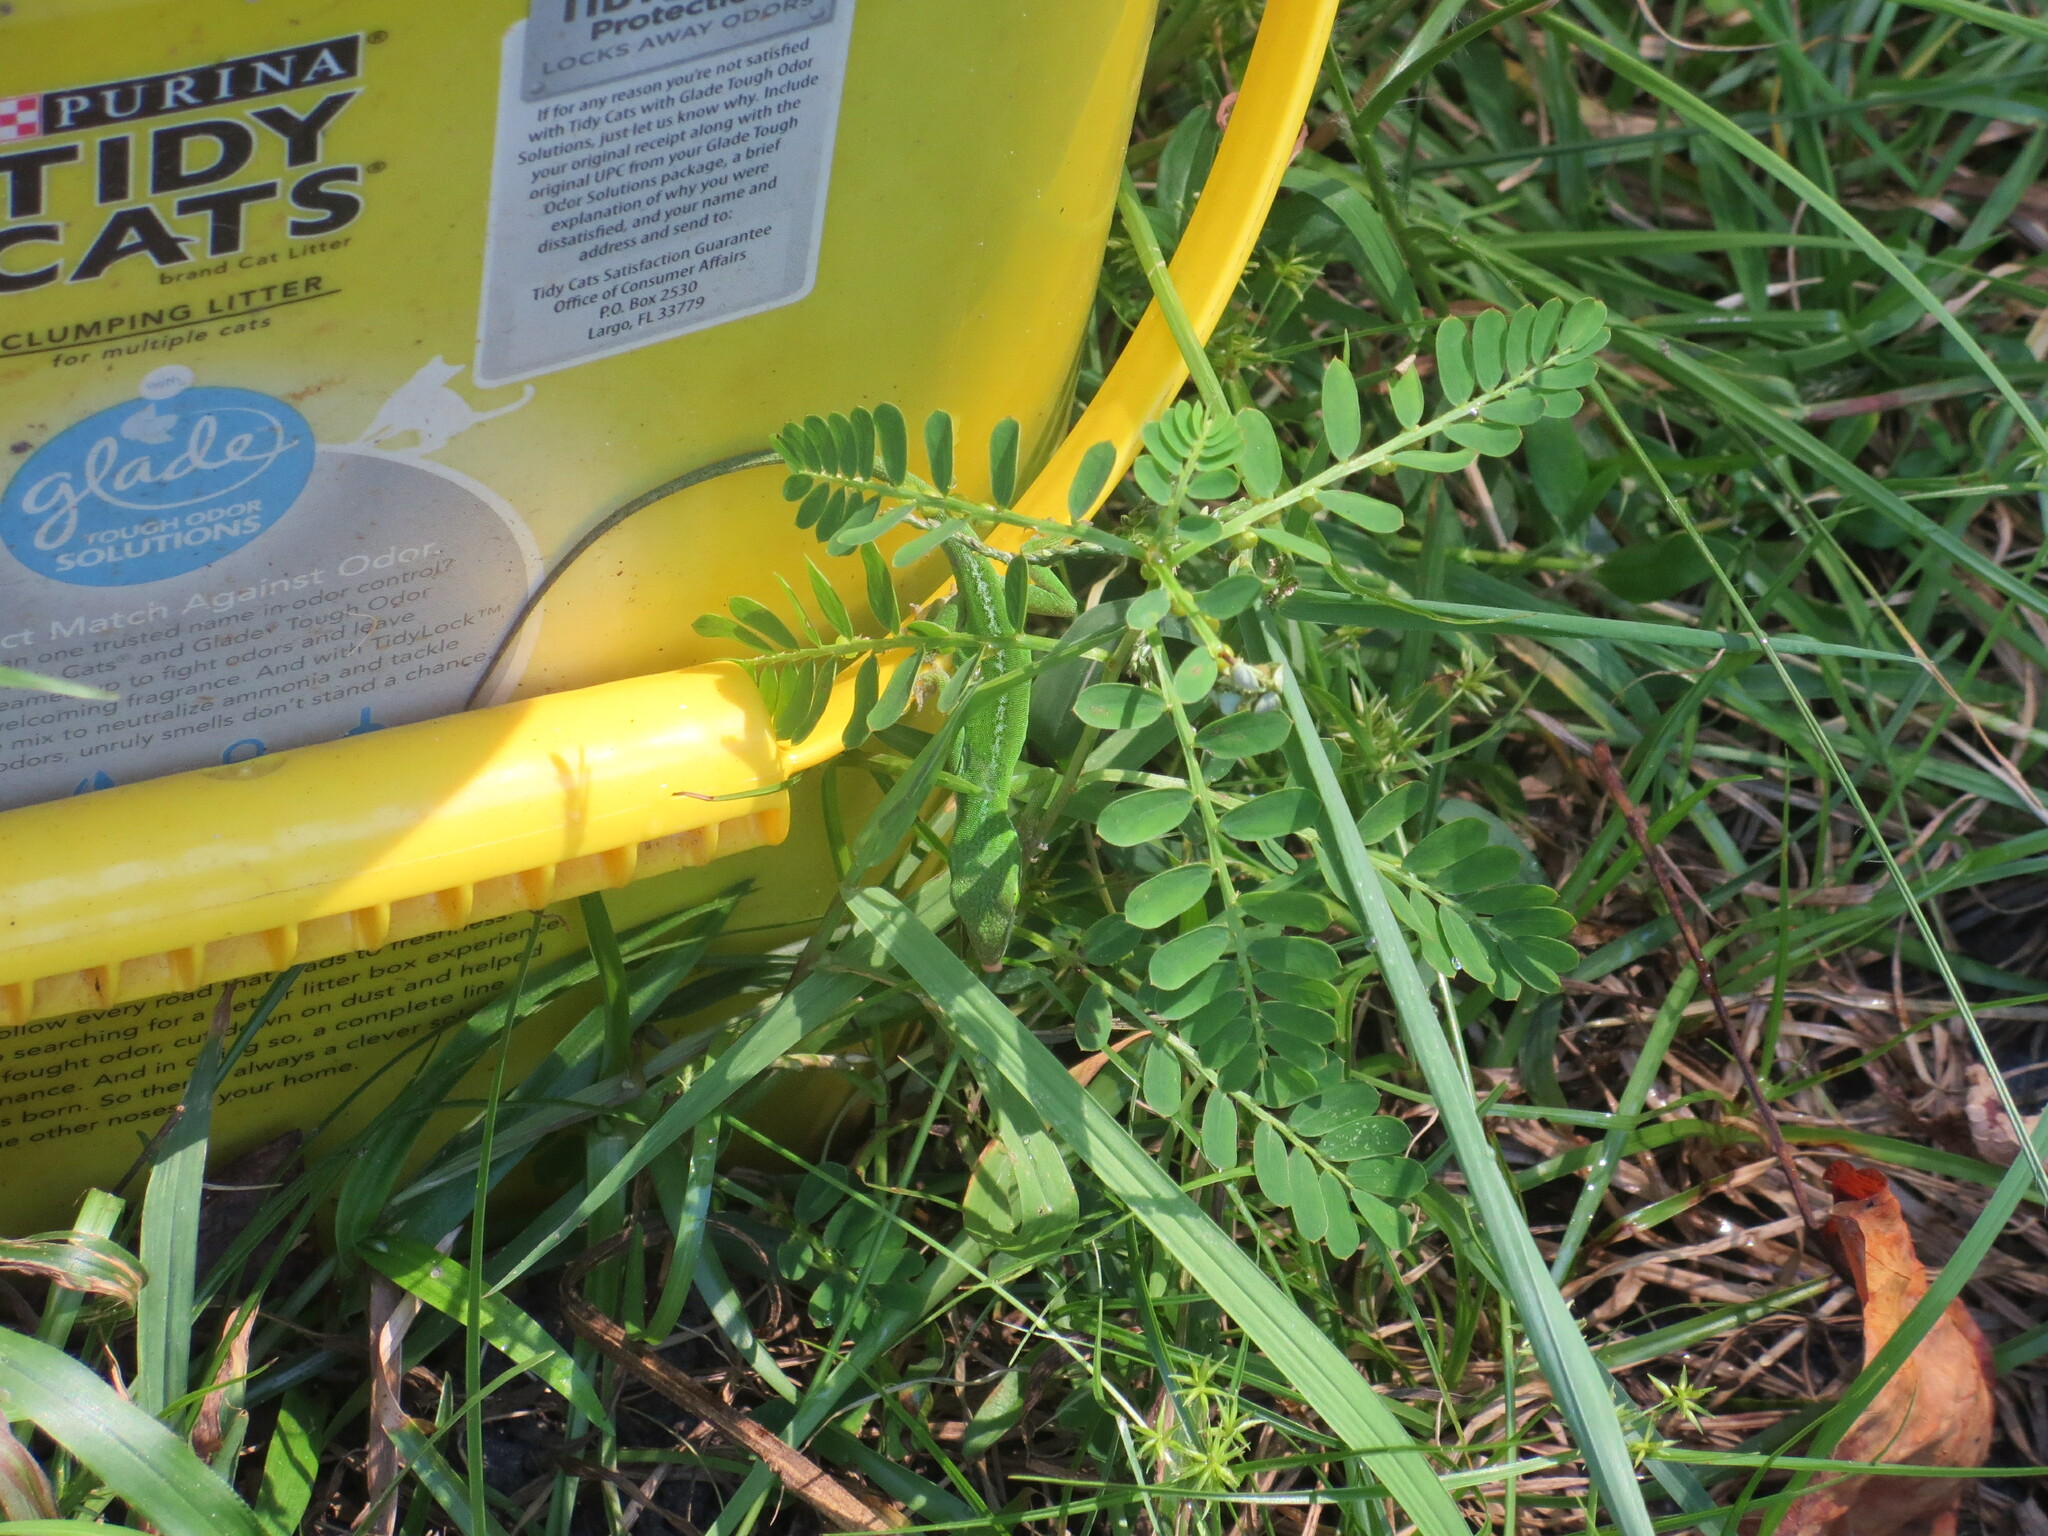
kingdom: Plantae
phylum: Tracheophyta
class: Magnoliopsida
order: Malpighiales
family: Phyllanthaceae
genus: Phyllanthus
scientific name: Phyllanthus urinaria
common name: Chamber bitter
